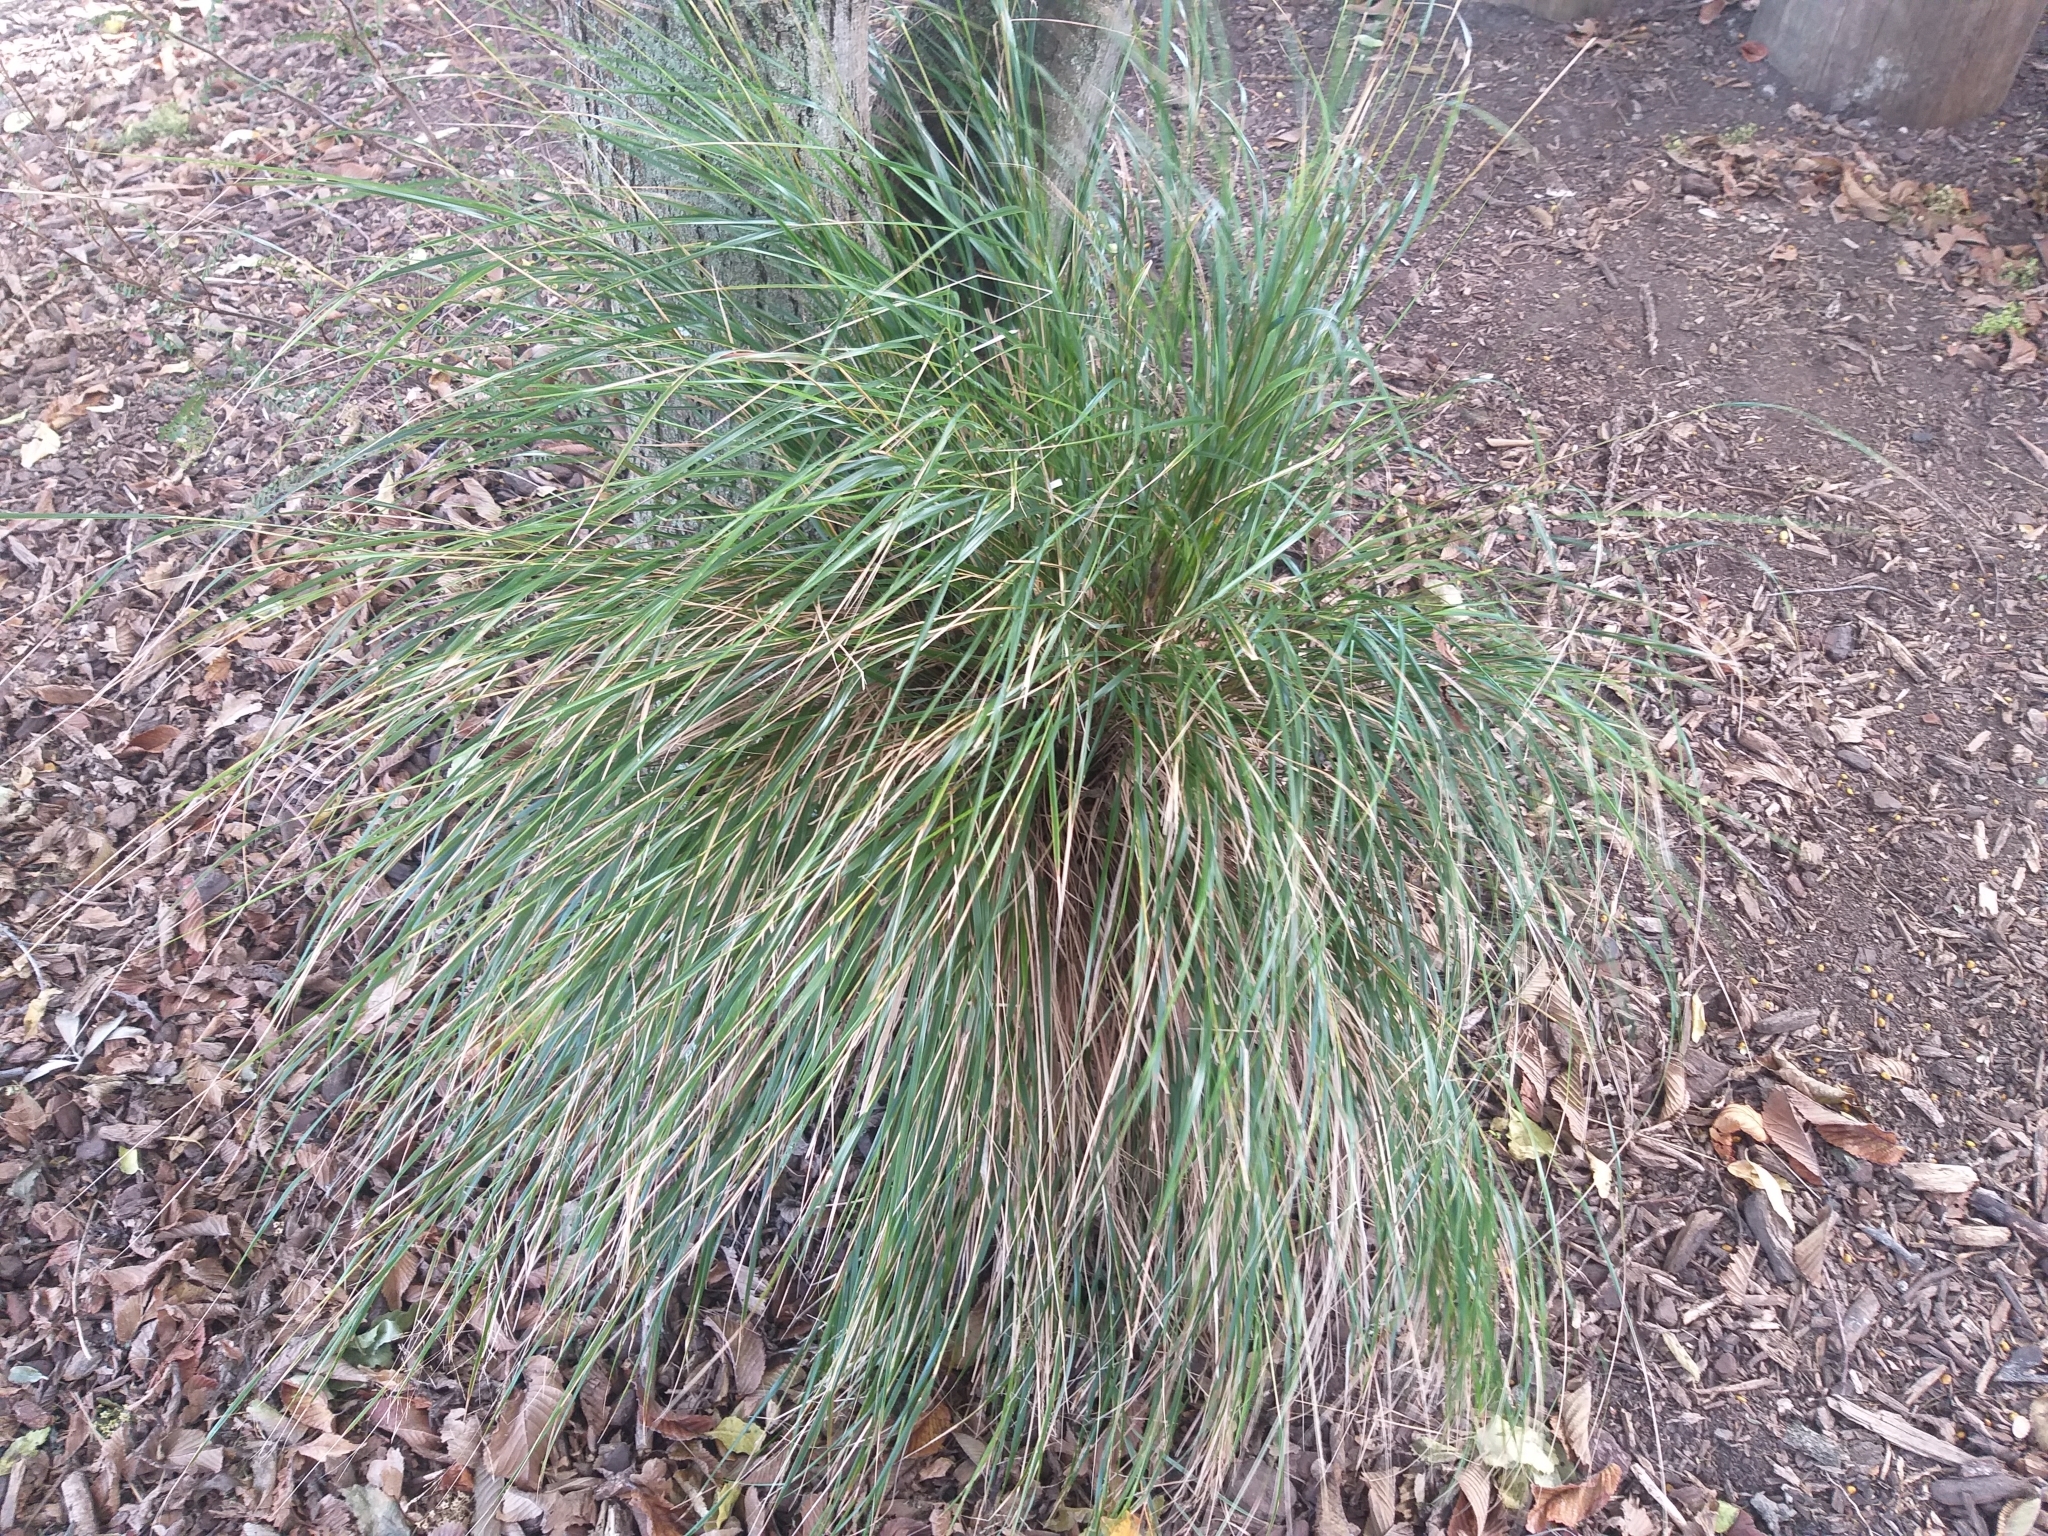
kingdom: Plantae
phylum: Tracheophyta
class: Liliopsida
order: Poales
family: Poaceae
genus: Anemanthele
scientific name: Anemanthele lessoniana
